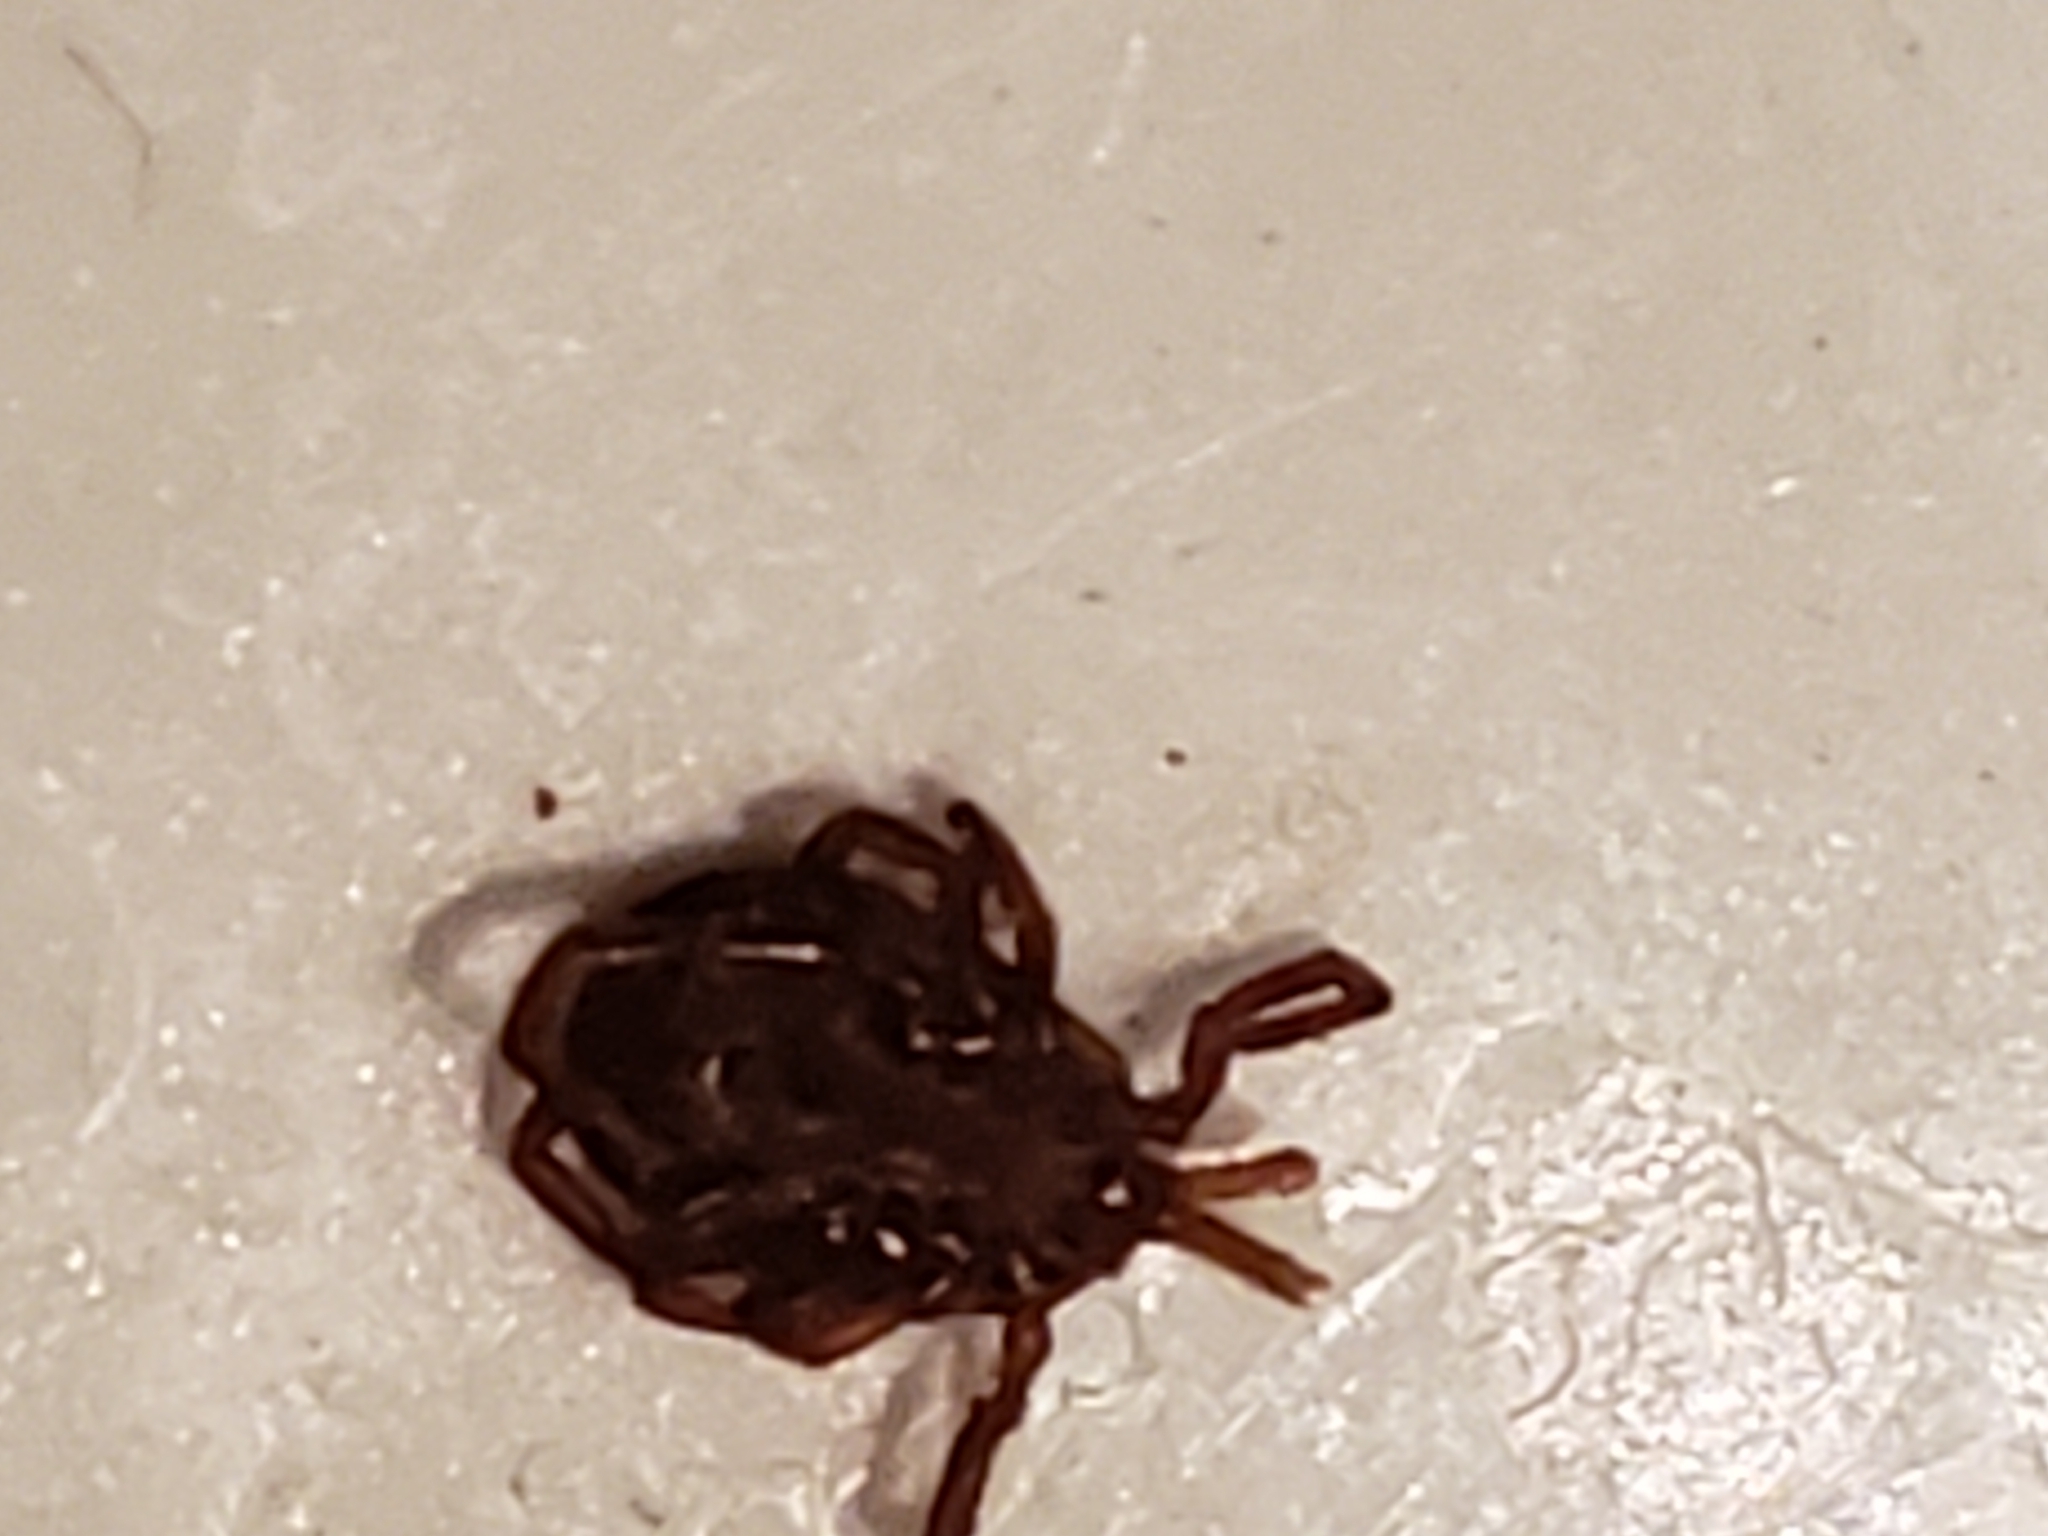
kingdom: Animalia
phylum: Arthropoda
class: Arachnida
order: Ixodida
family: Ixodidae
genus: Amblyomma
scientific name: Amblyomma americanum
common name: Lone star tick
